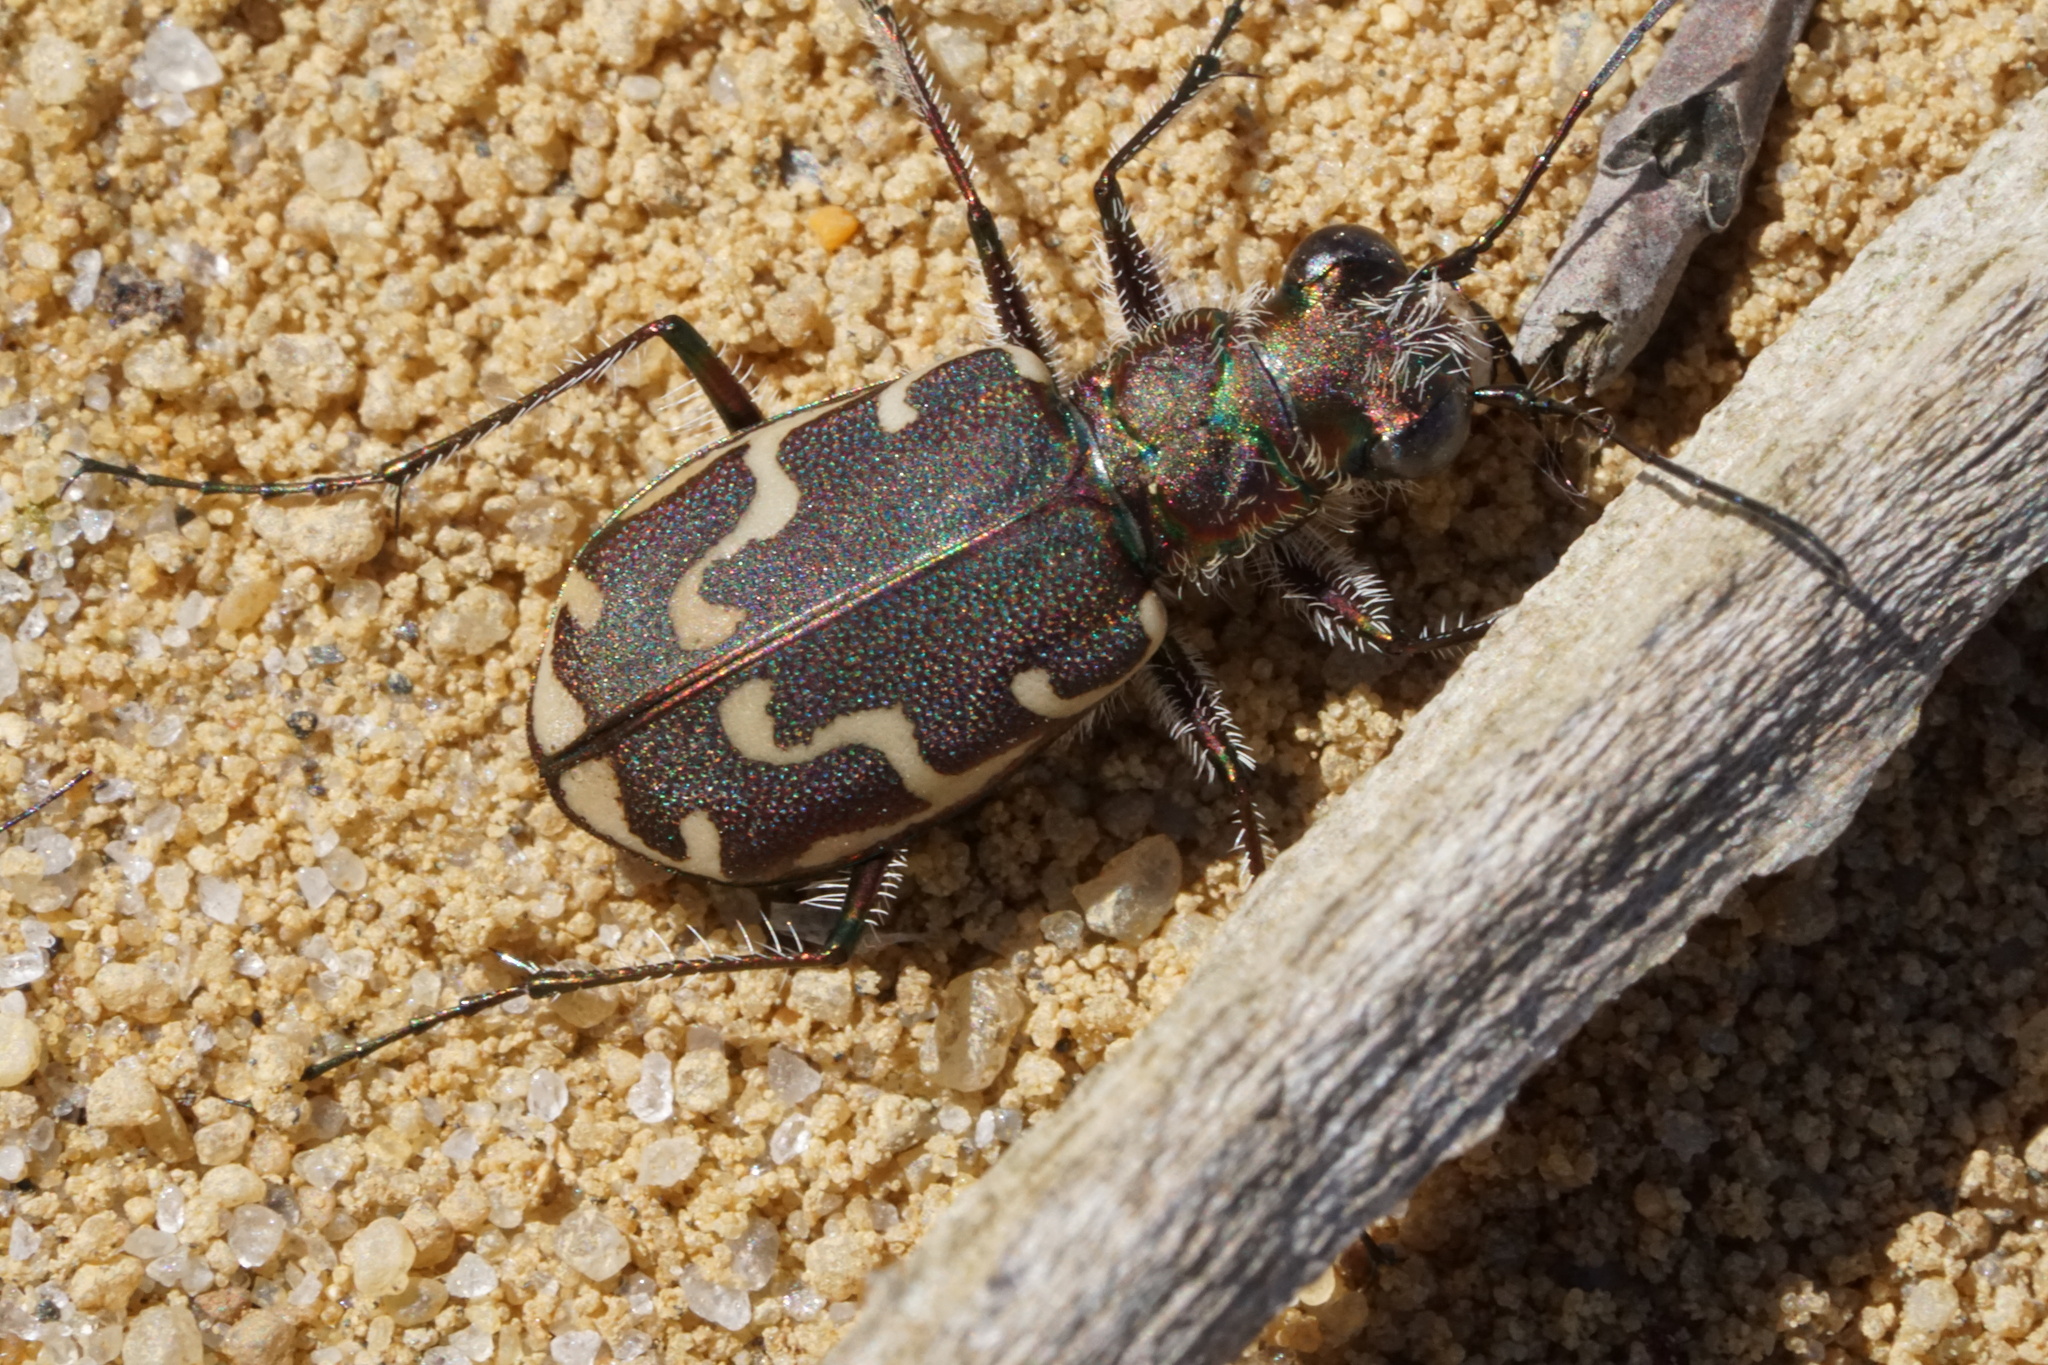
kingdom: Animalia
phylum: Arthropoda
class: Insecta
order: Coleoptera
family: Carabidae
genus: Cicindela
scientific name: Cicindela repanda
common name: Bronzed tiger beetle
